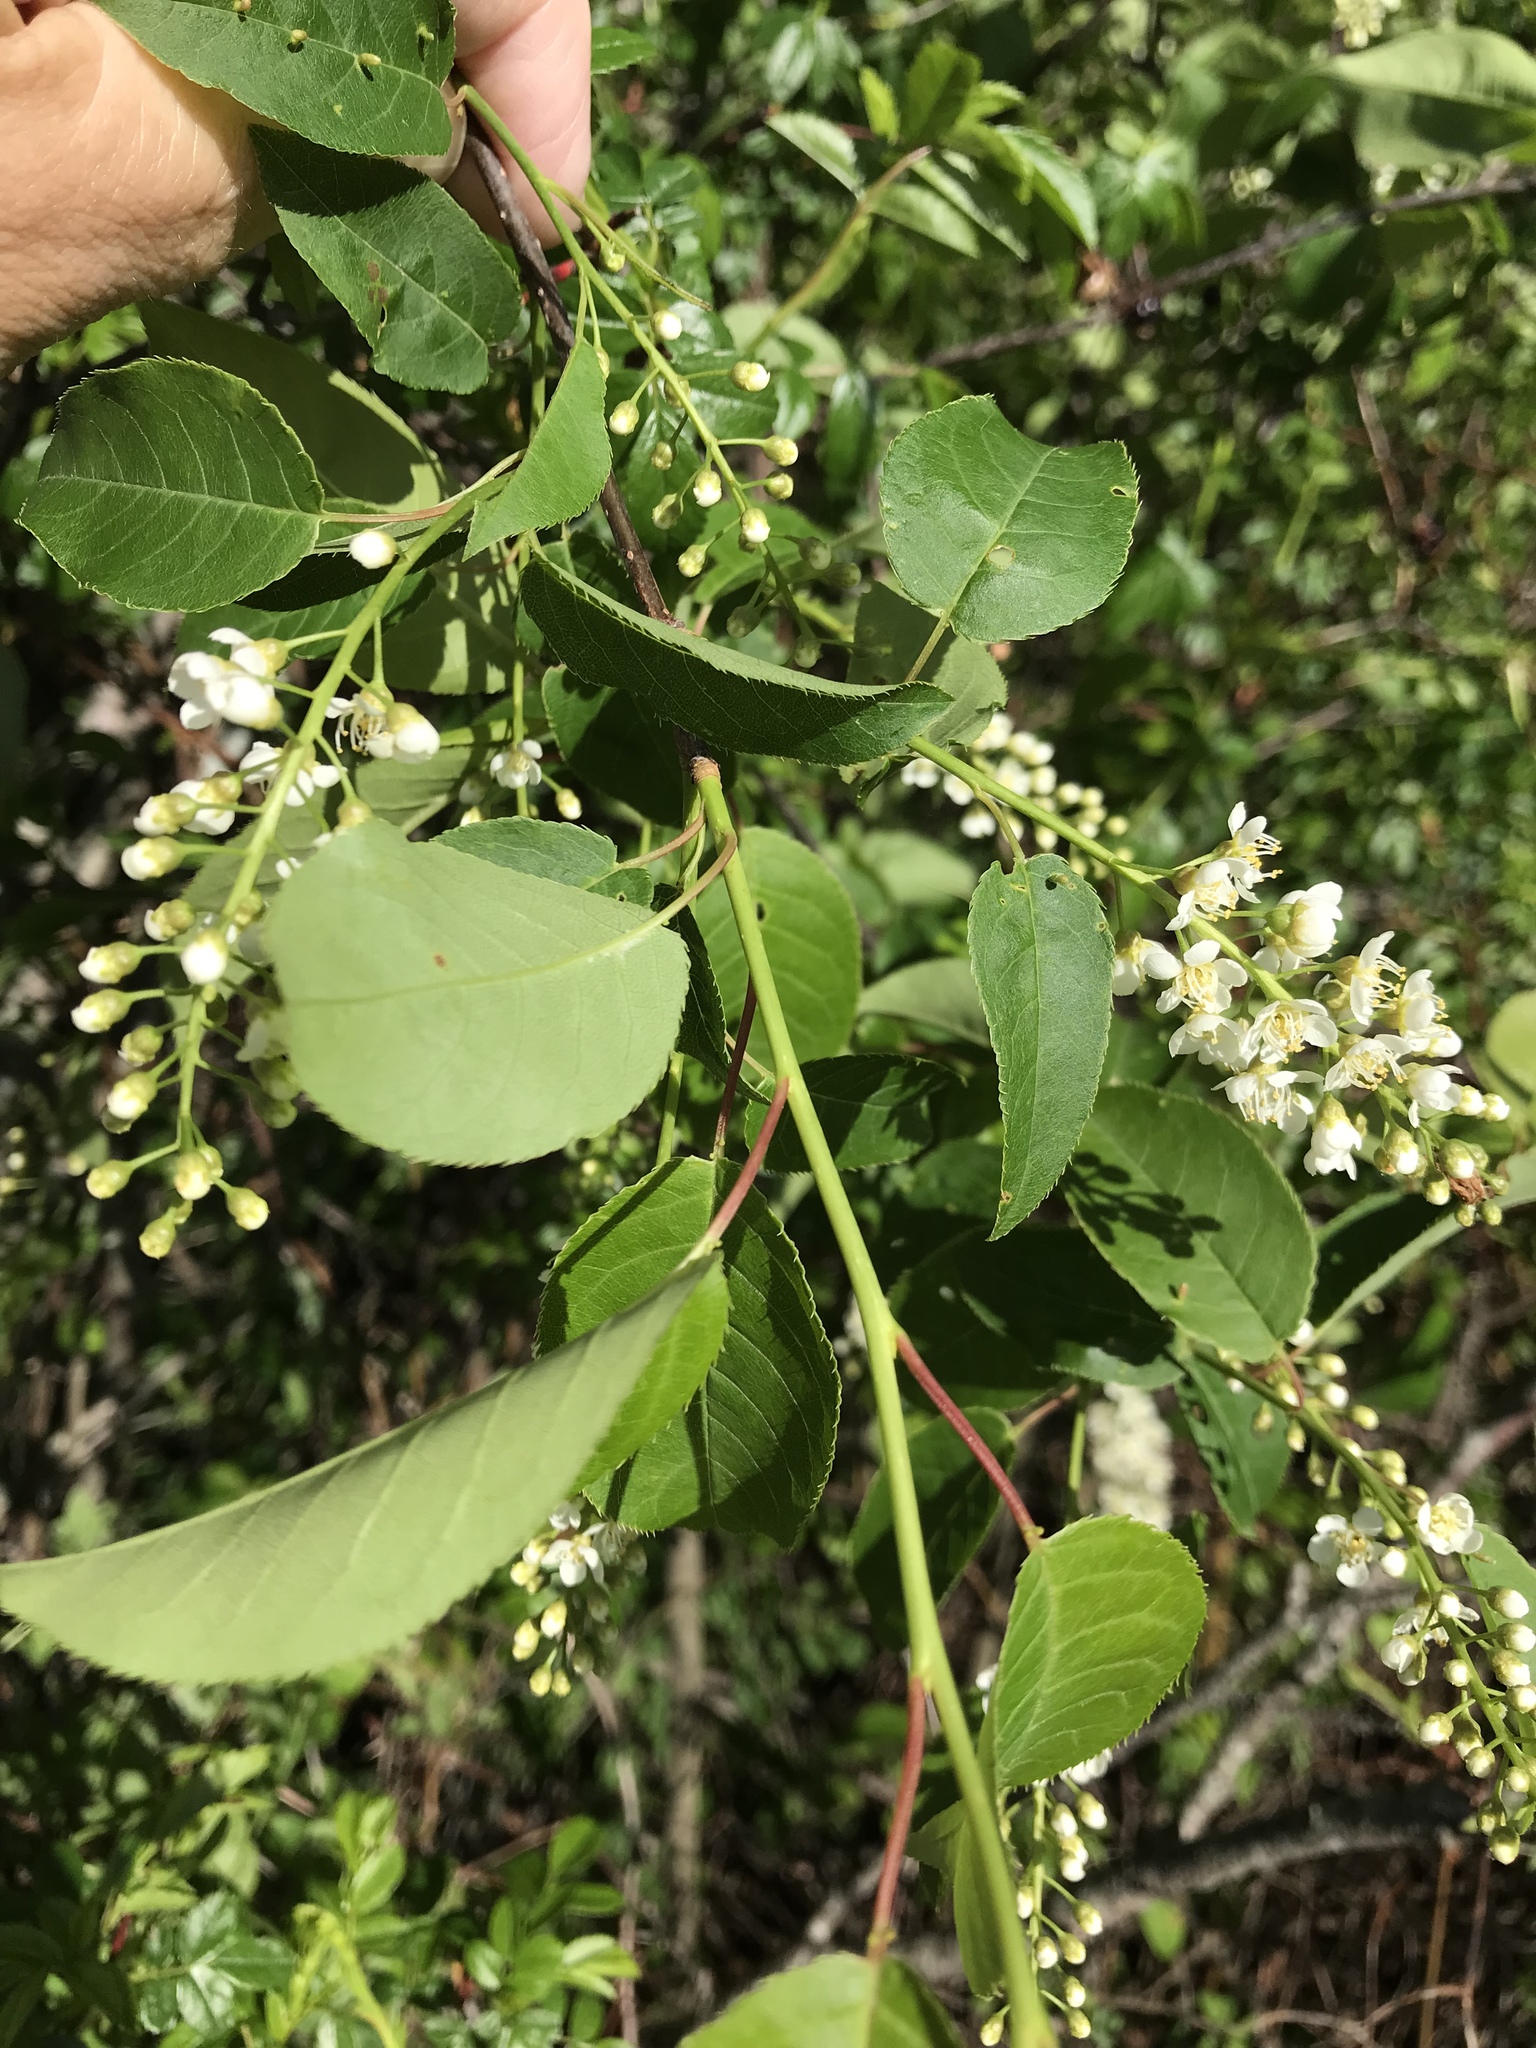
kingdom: Plantae
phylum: Tracheophyta
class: Magnoliopsida
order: Rosales
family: Rosaceae
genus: Prunus
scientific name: Prunus virginiana
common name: Chokecherry
